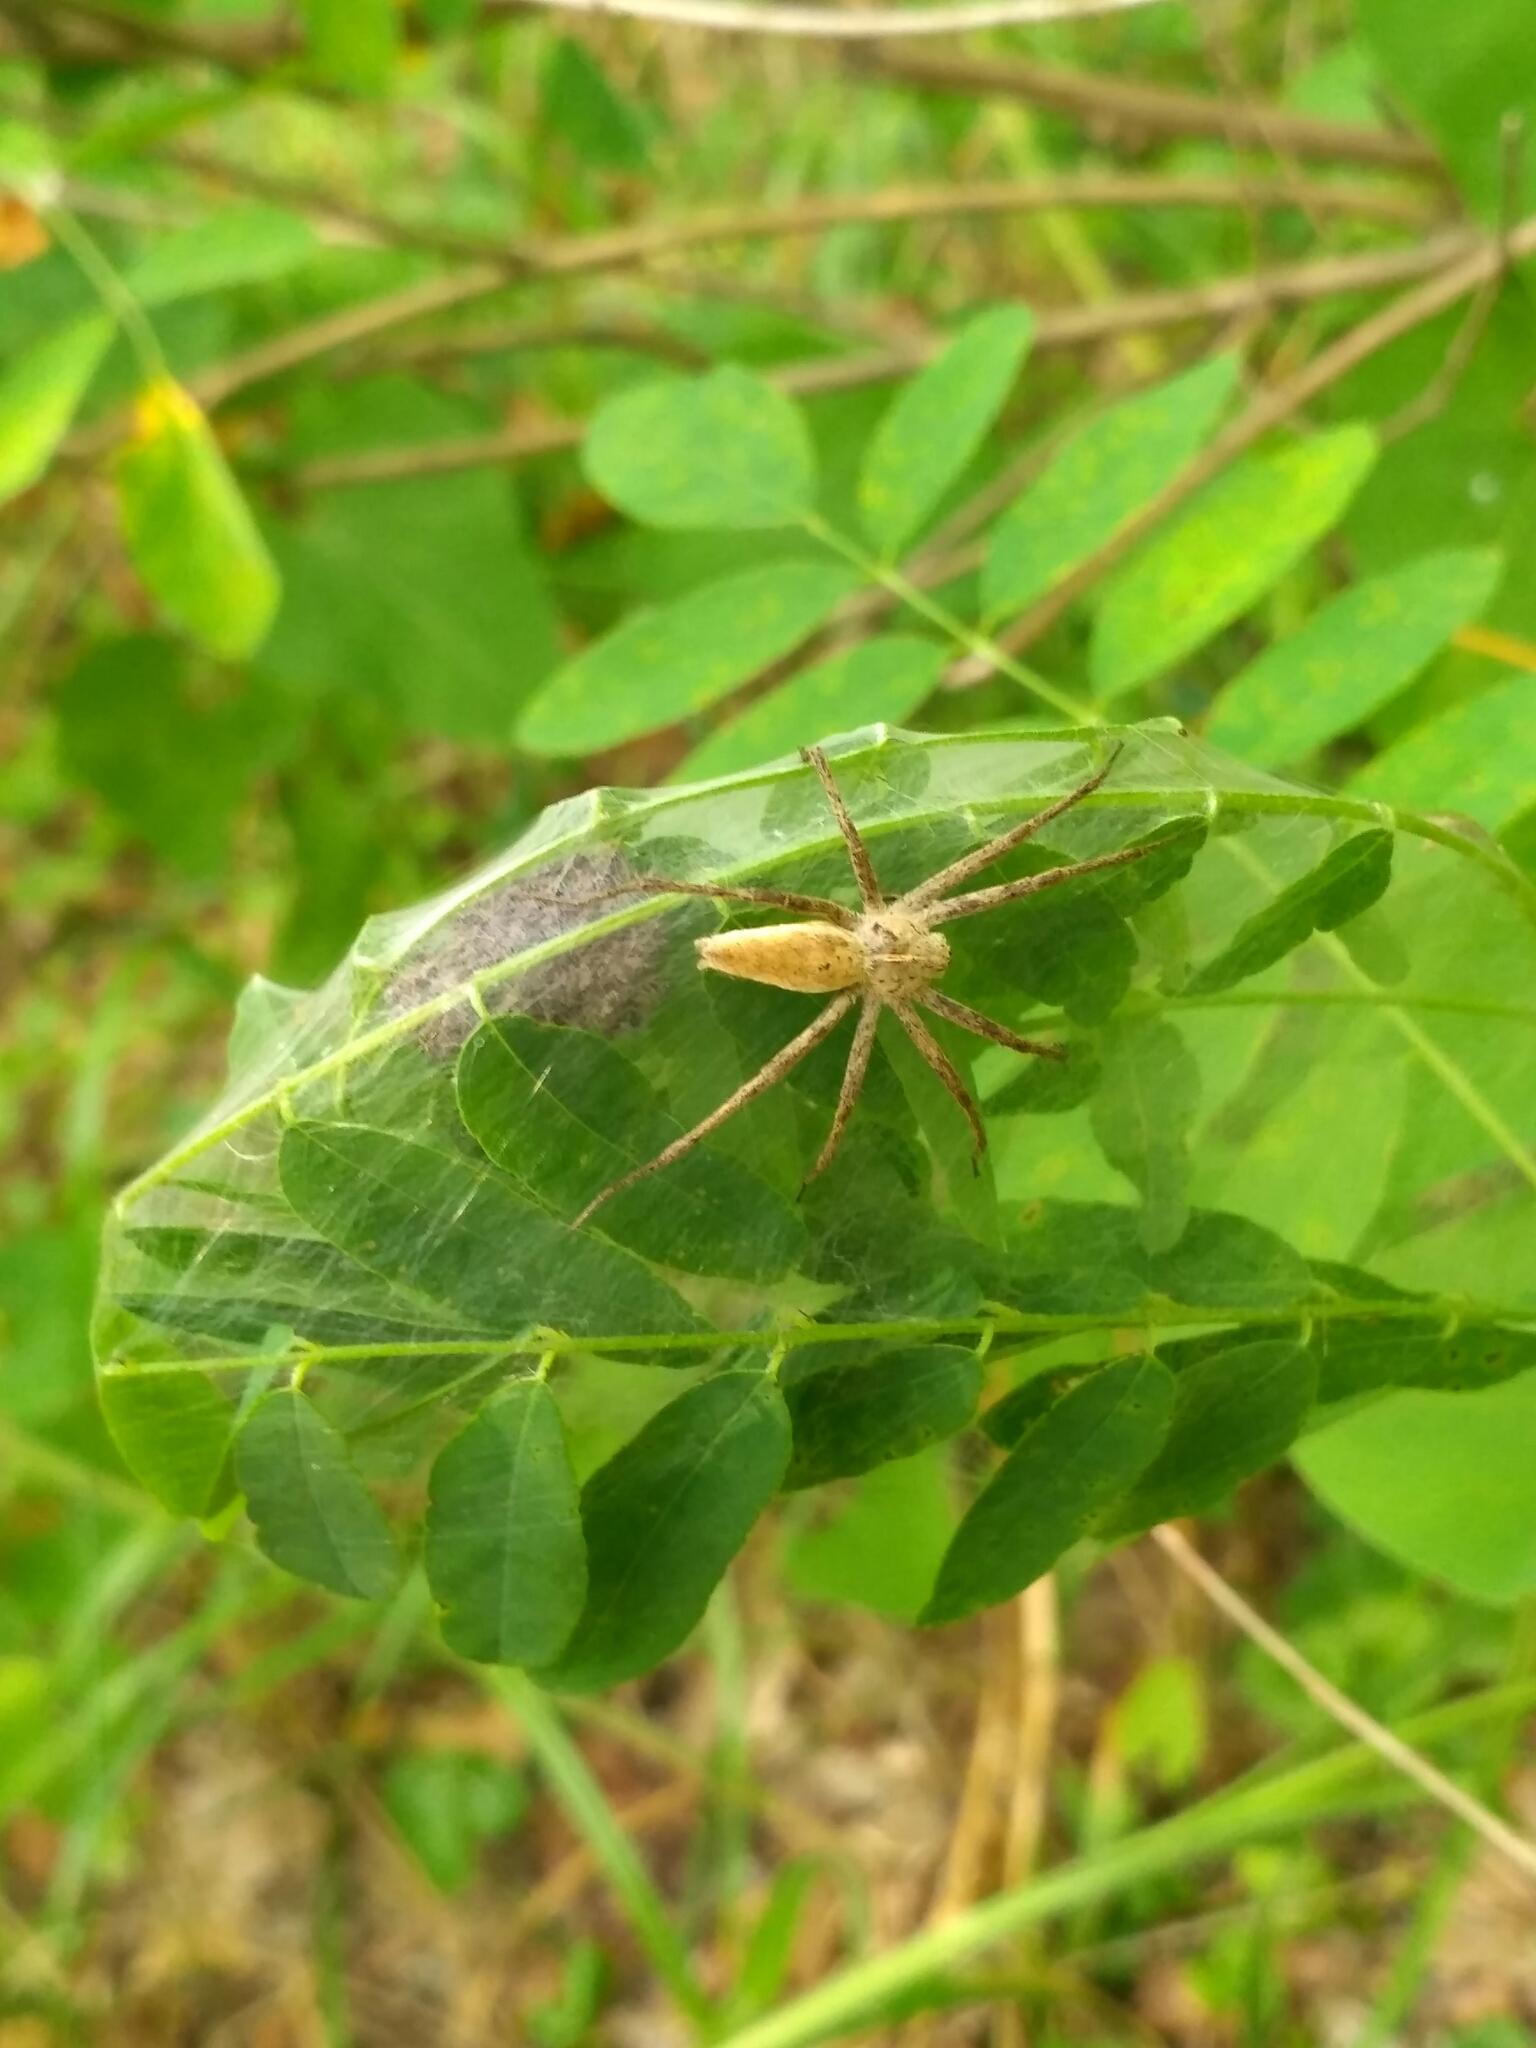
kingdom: Animalia
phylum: Arthropoda
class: Arachnida
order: Araneae
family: Pisauridae
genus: Pisaura
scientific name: Pisaura
